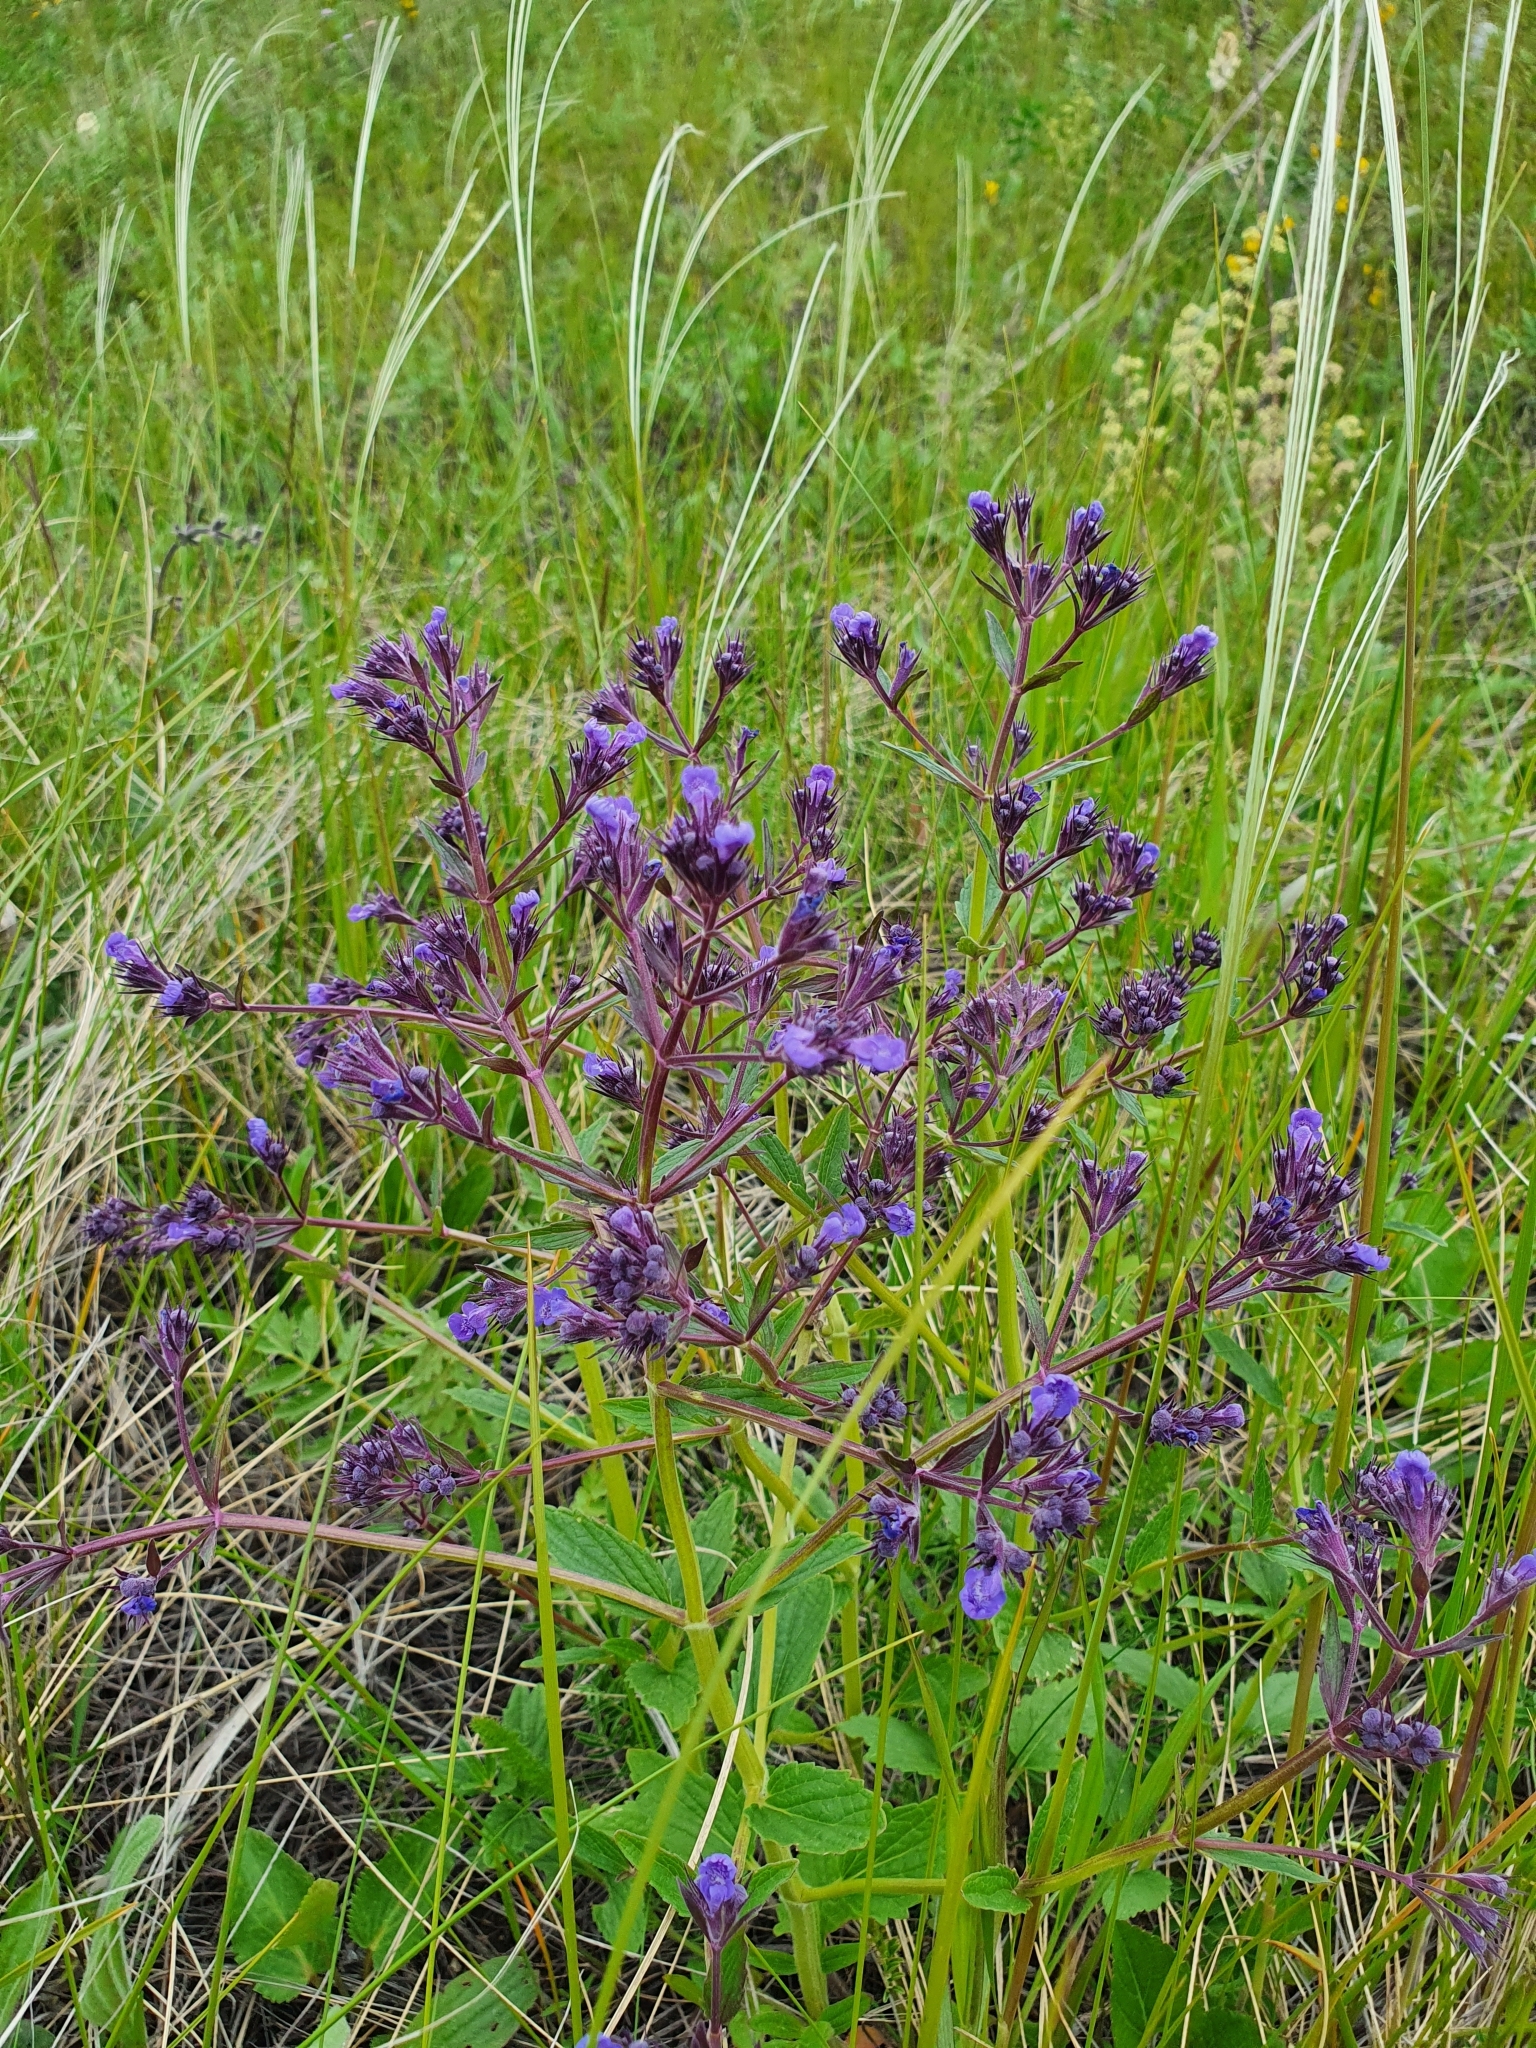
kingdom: Plantae
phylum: Tracheophyta
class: Magnoliopsida
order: Lamiales
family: Lamiaceae
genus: Nepeta
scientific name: Nepeta ucranica
